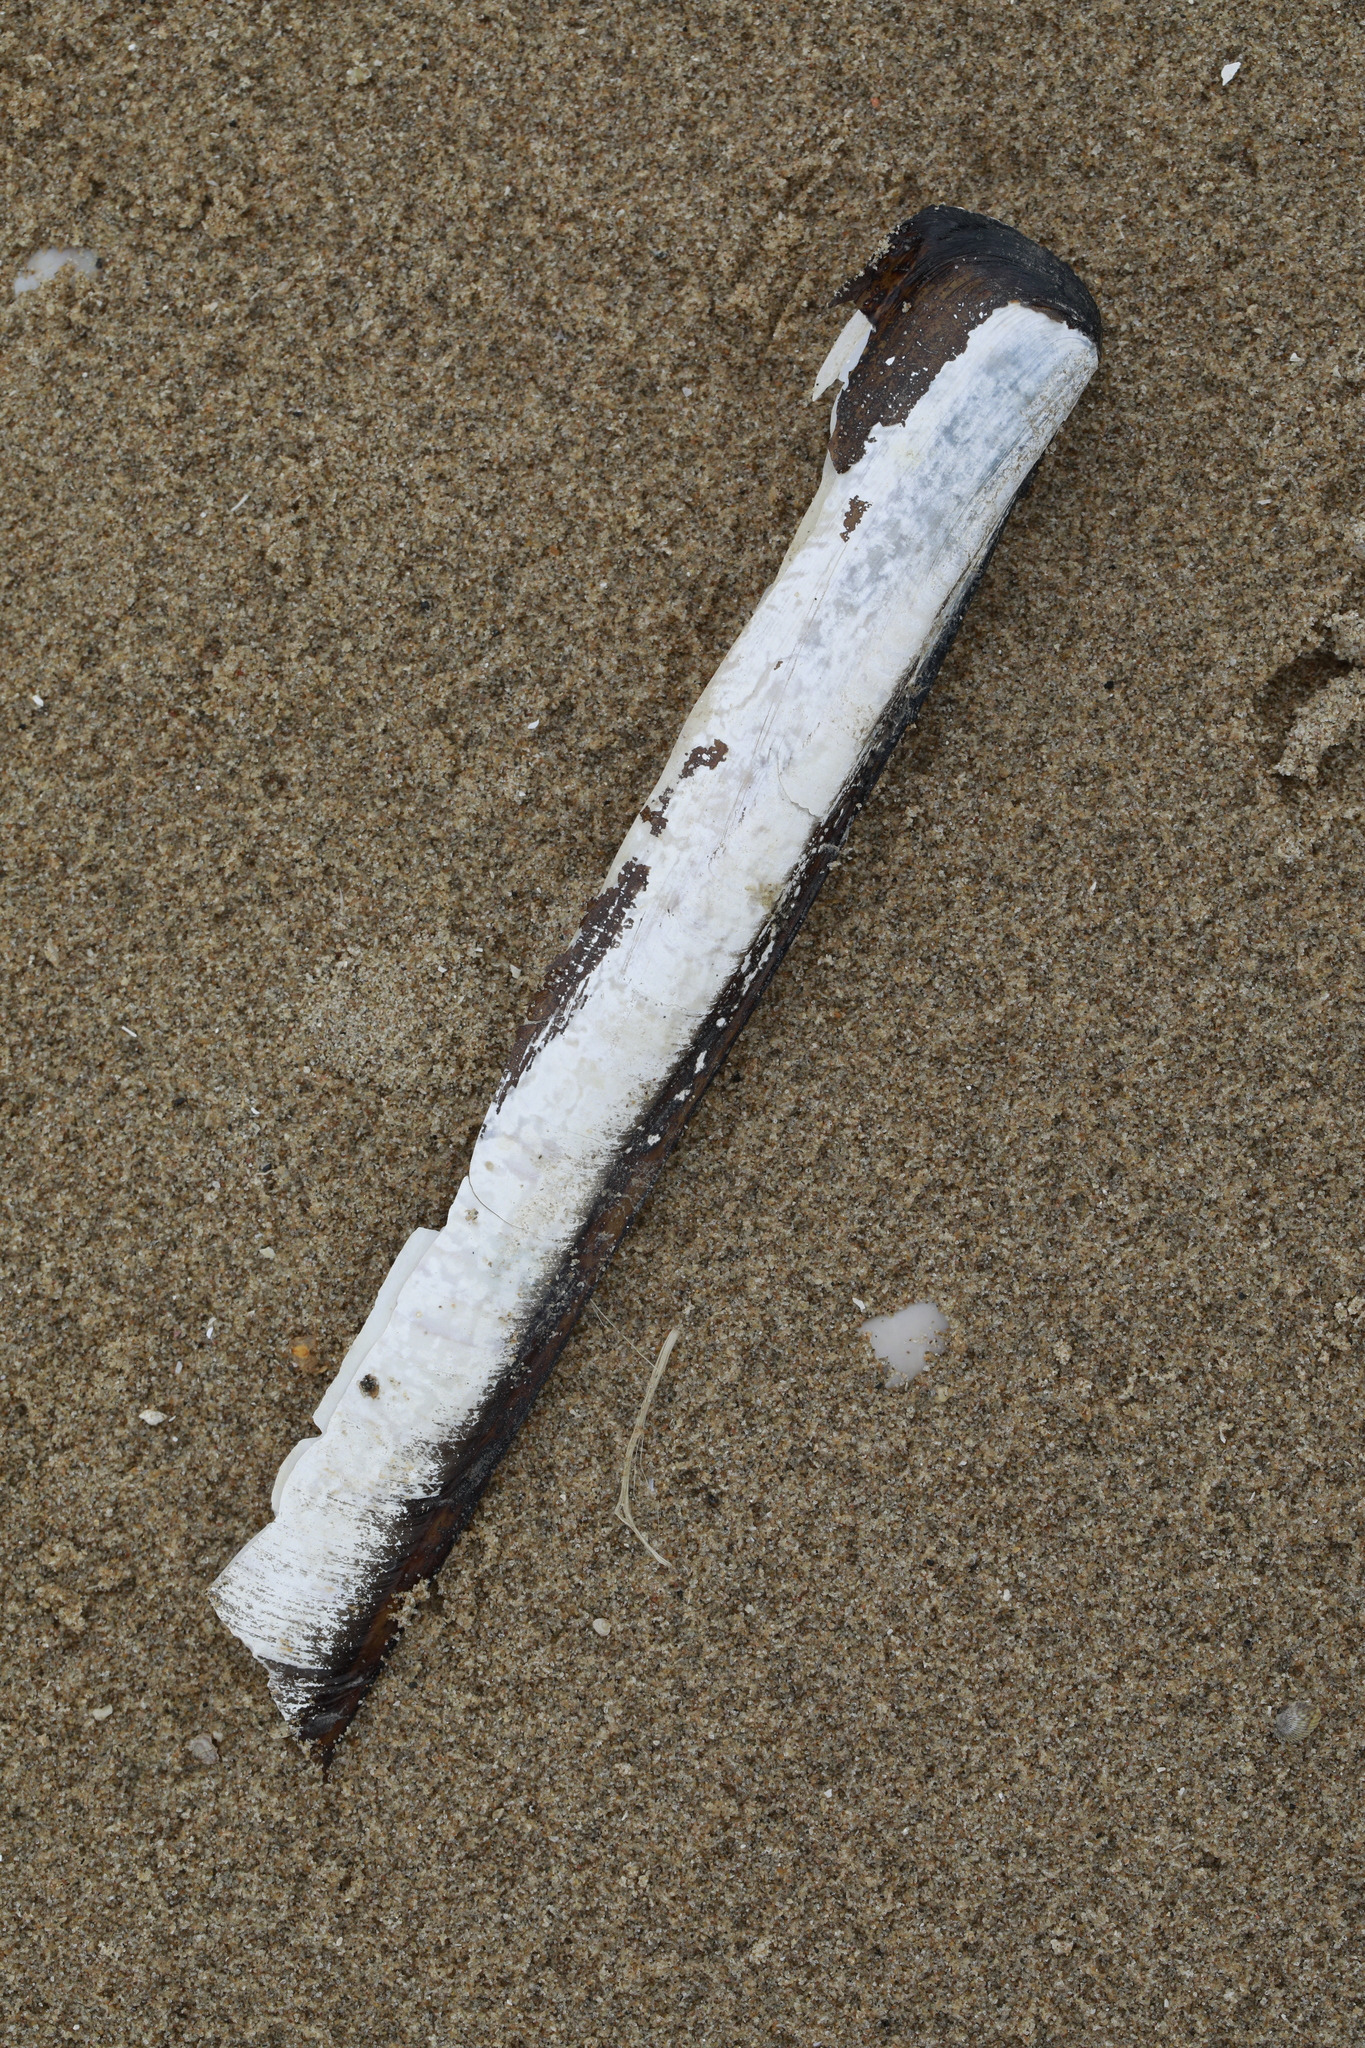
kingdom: Animalia
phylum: Mollusca
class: Bivalvia
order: Adapedonta
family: Pharidae
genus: Ensis
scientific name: Ensis siliqua
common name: Pod razor shell
